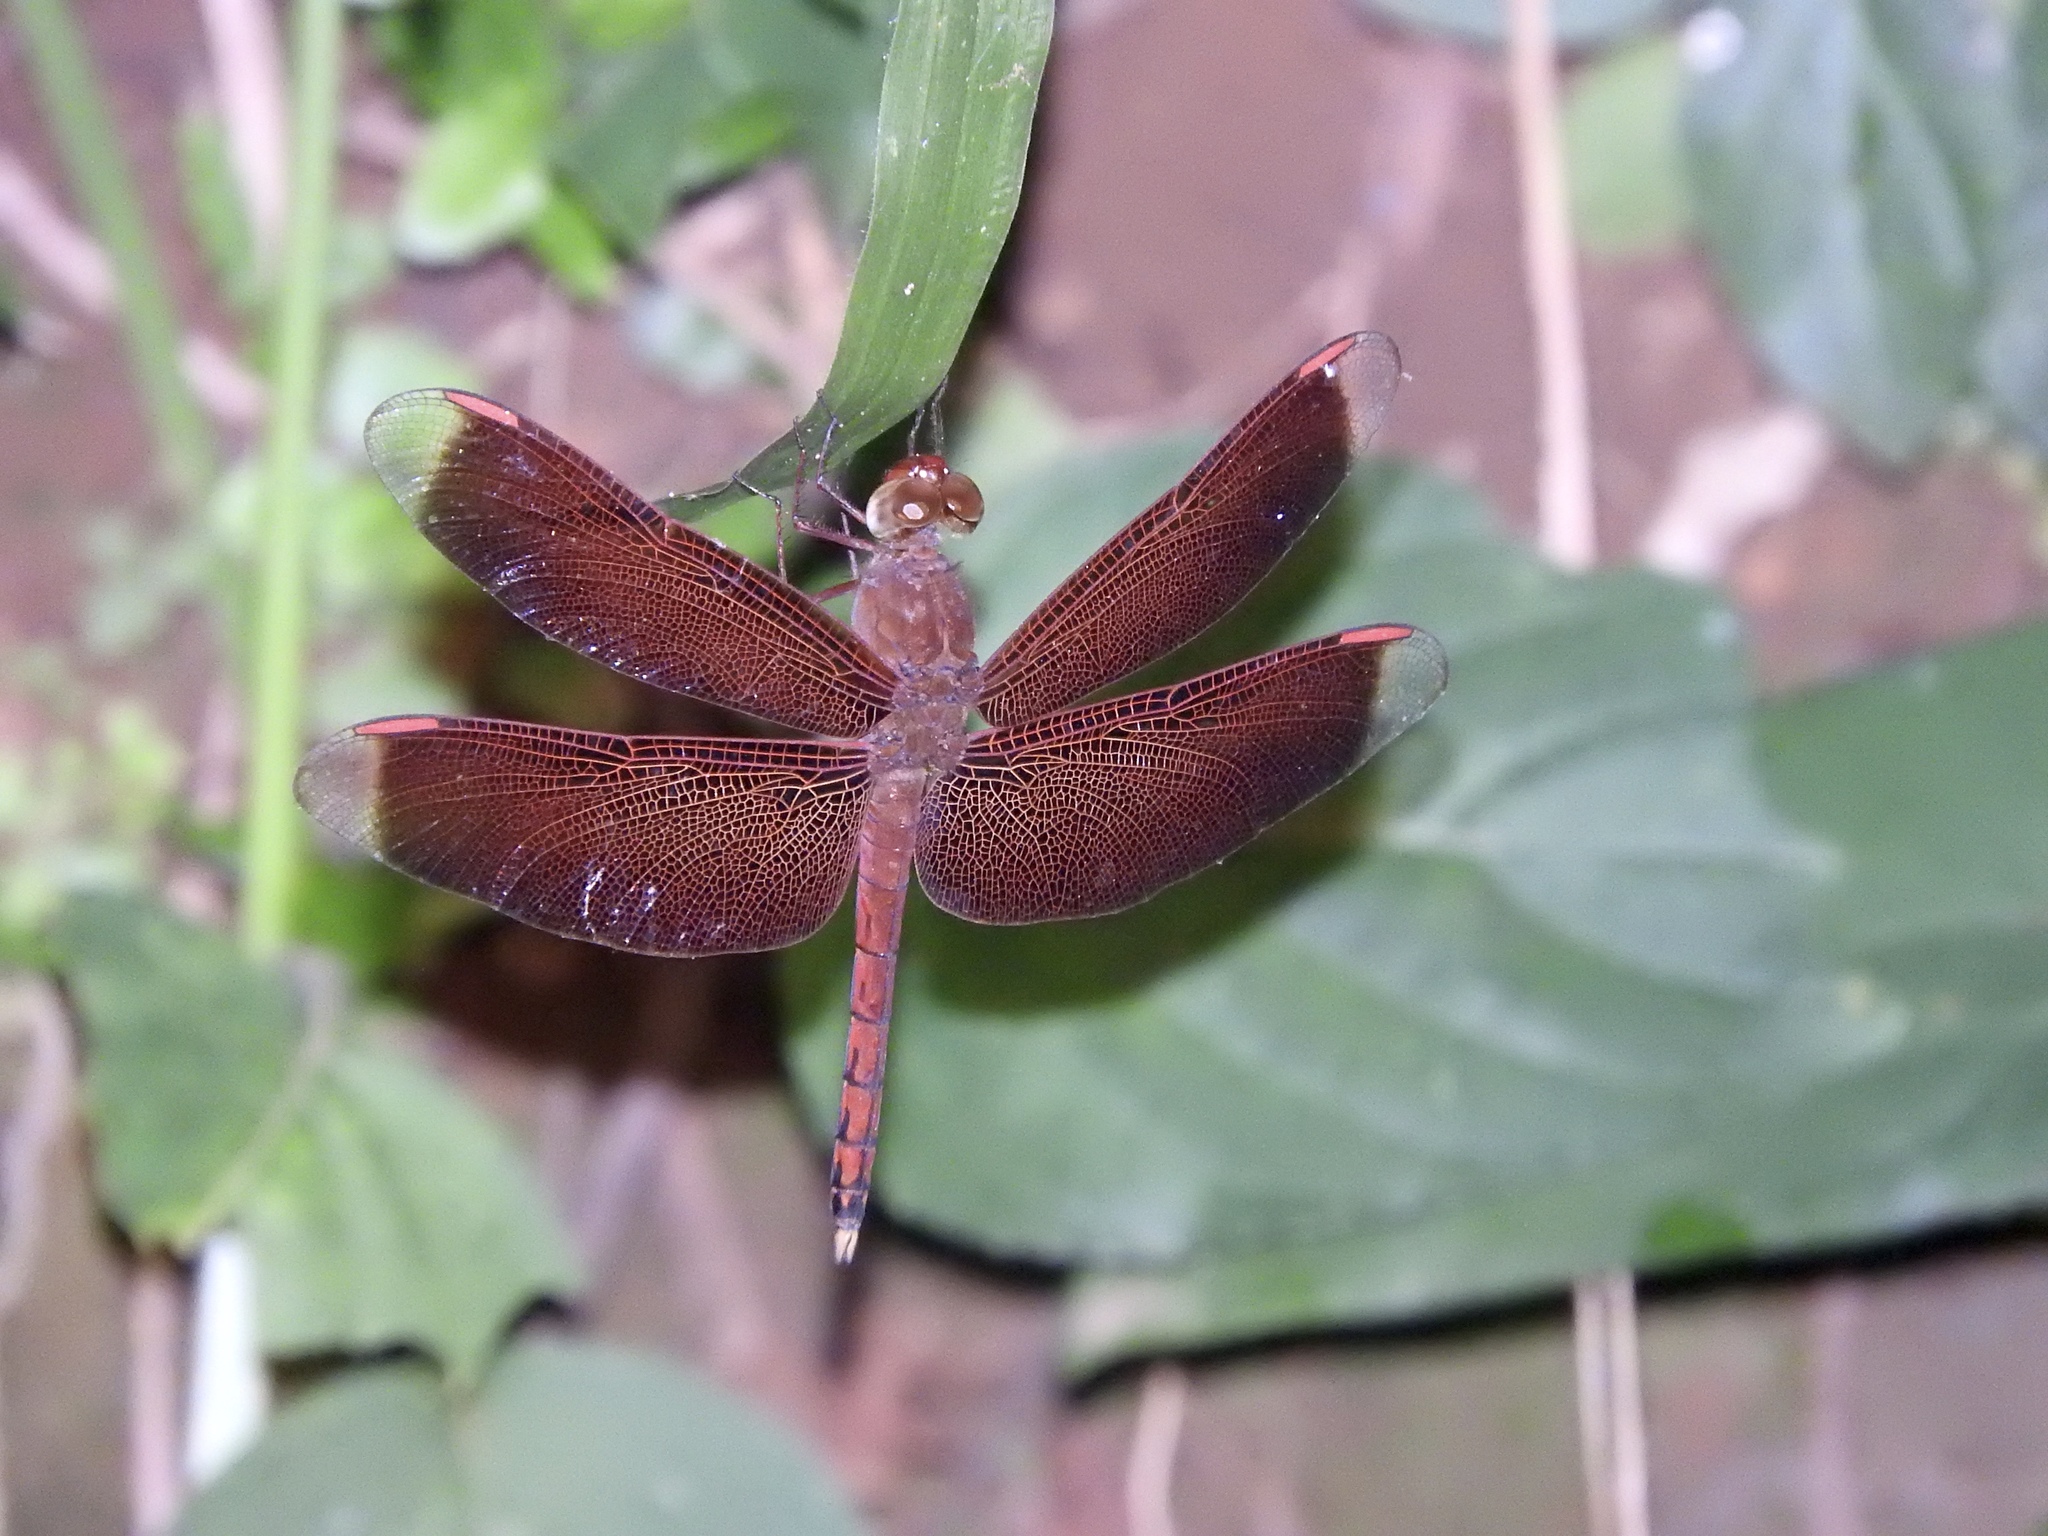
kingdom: Animalia
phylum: Arthropoda
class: Insecta
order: Odonata
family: Libellulidae
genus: Neurothemis
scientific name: Neurothemis terminata
